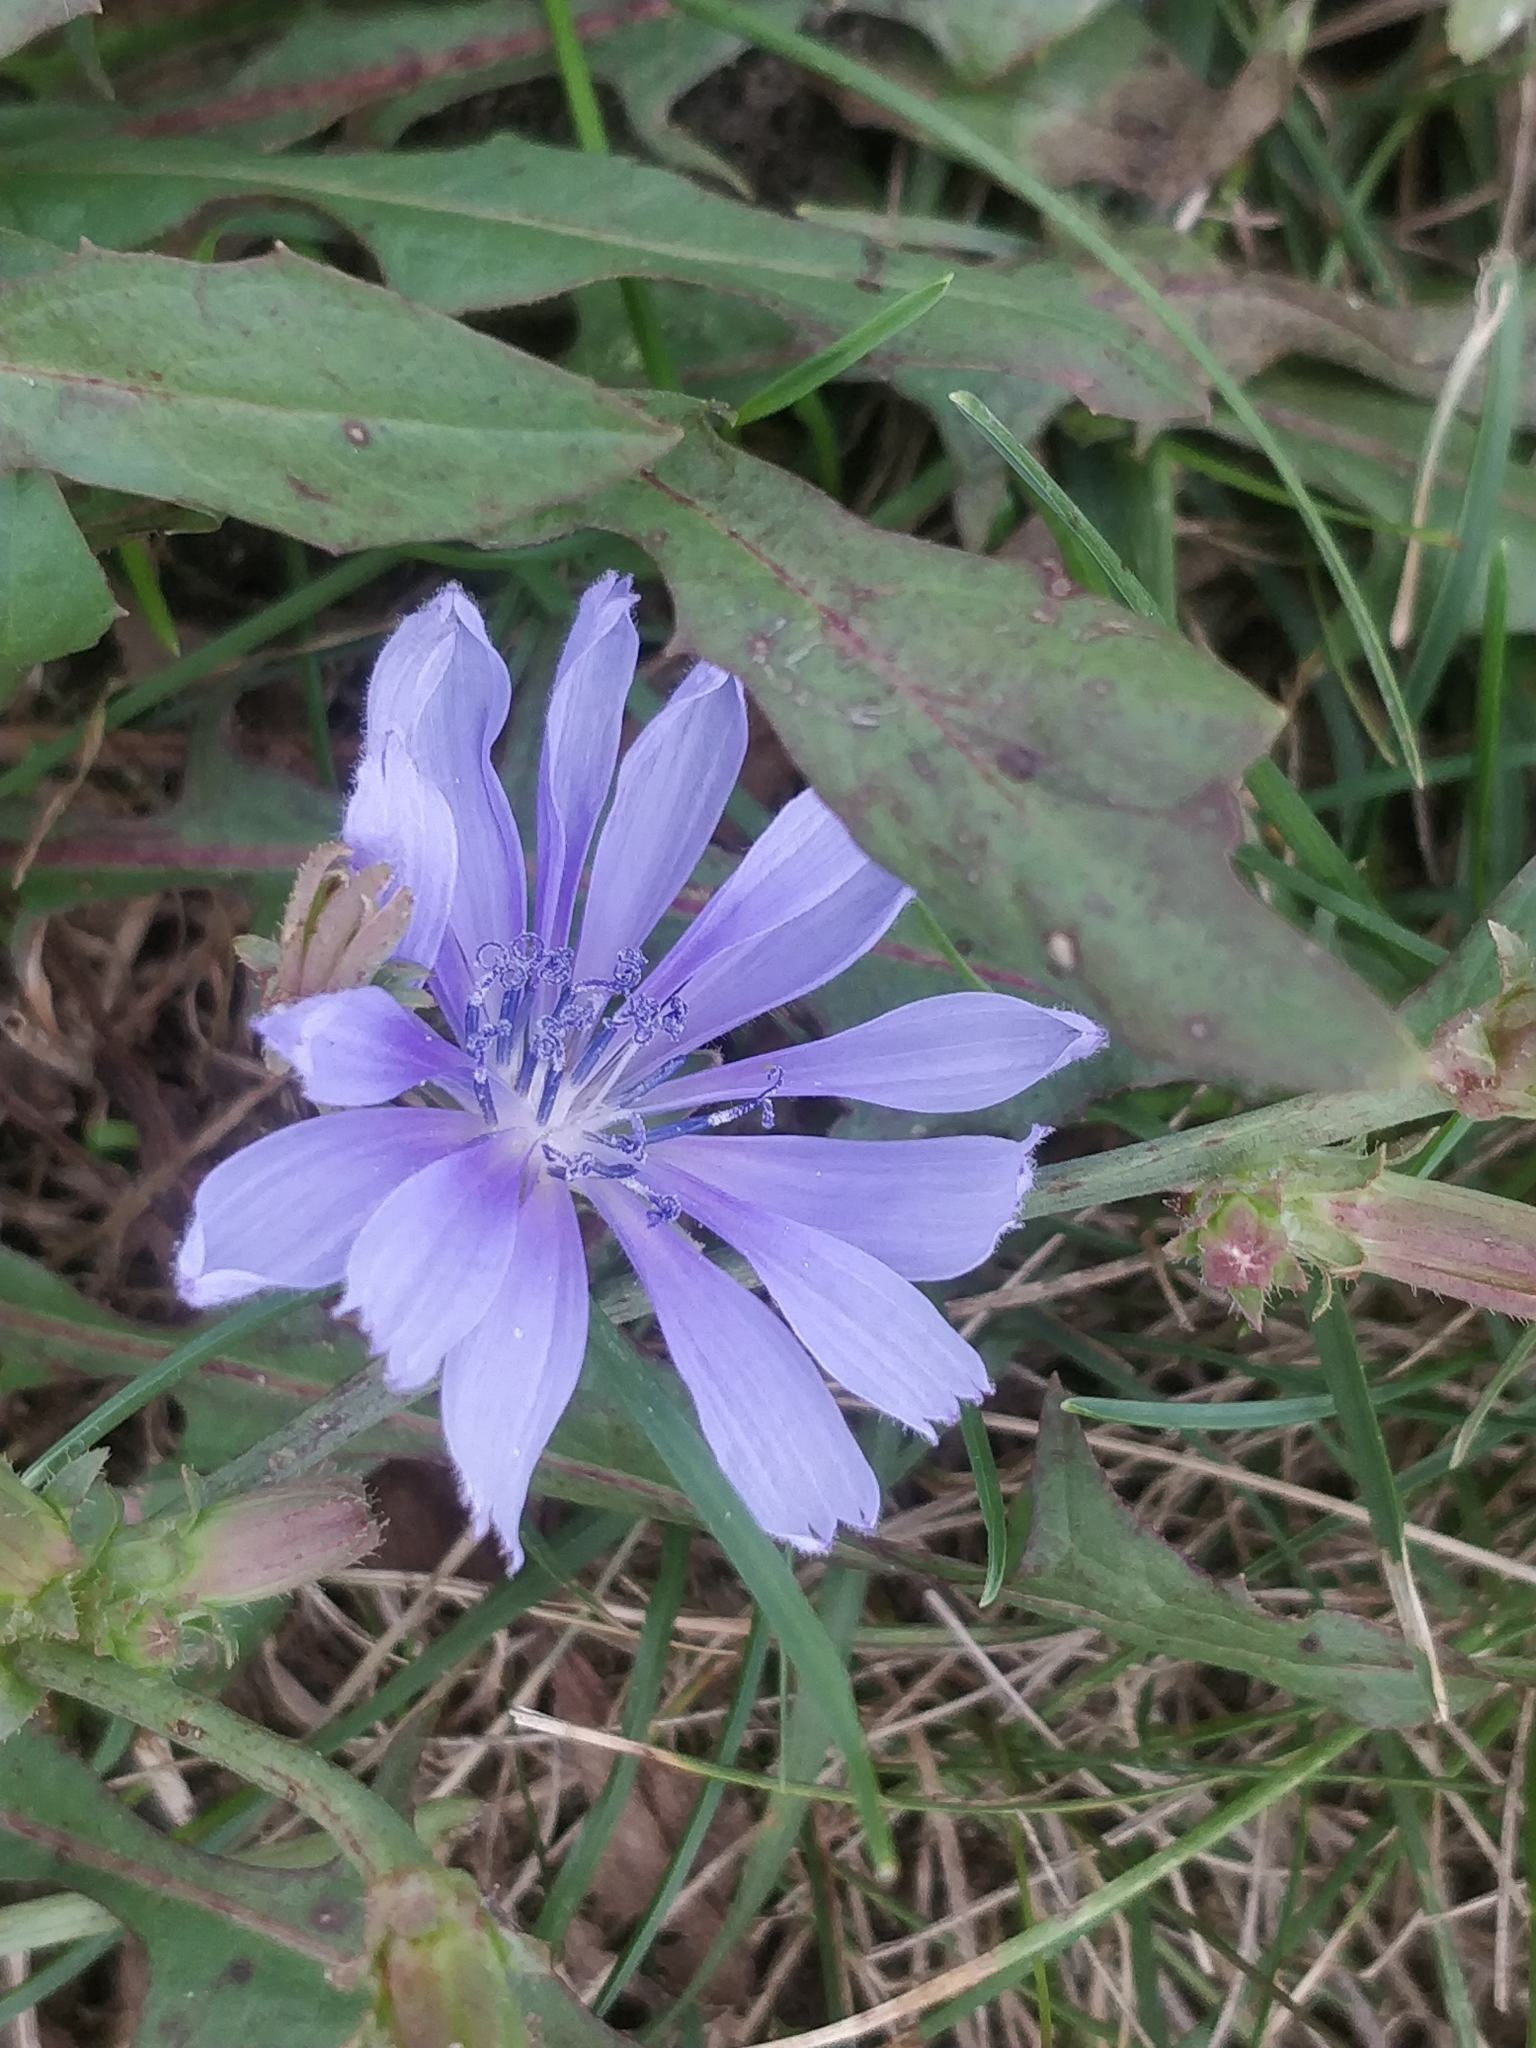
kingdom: Plantae
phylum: Tracheophyta
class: Magnoliopsida
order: Asterales
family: Asteraceae
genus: Cichorium
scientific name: Cichorium intybus
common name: Chicory
